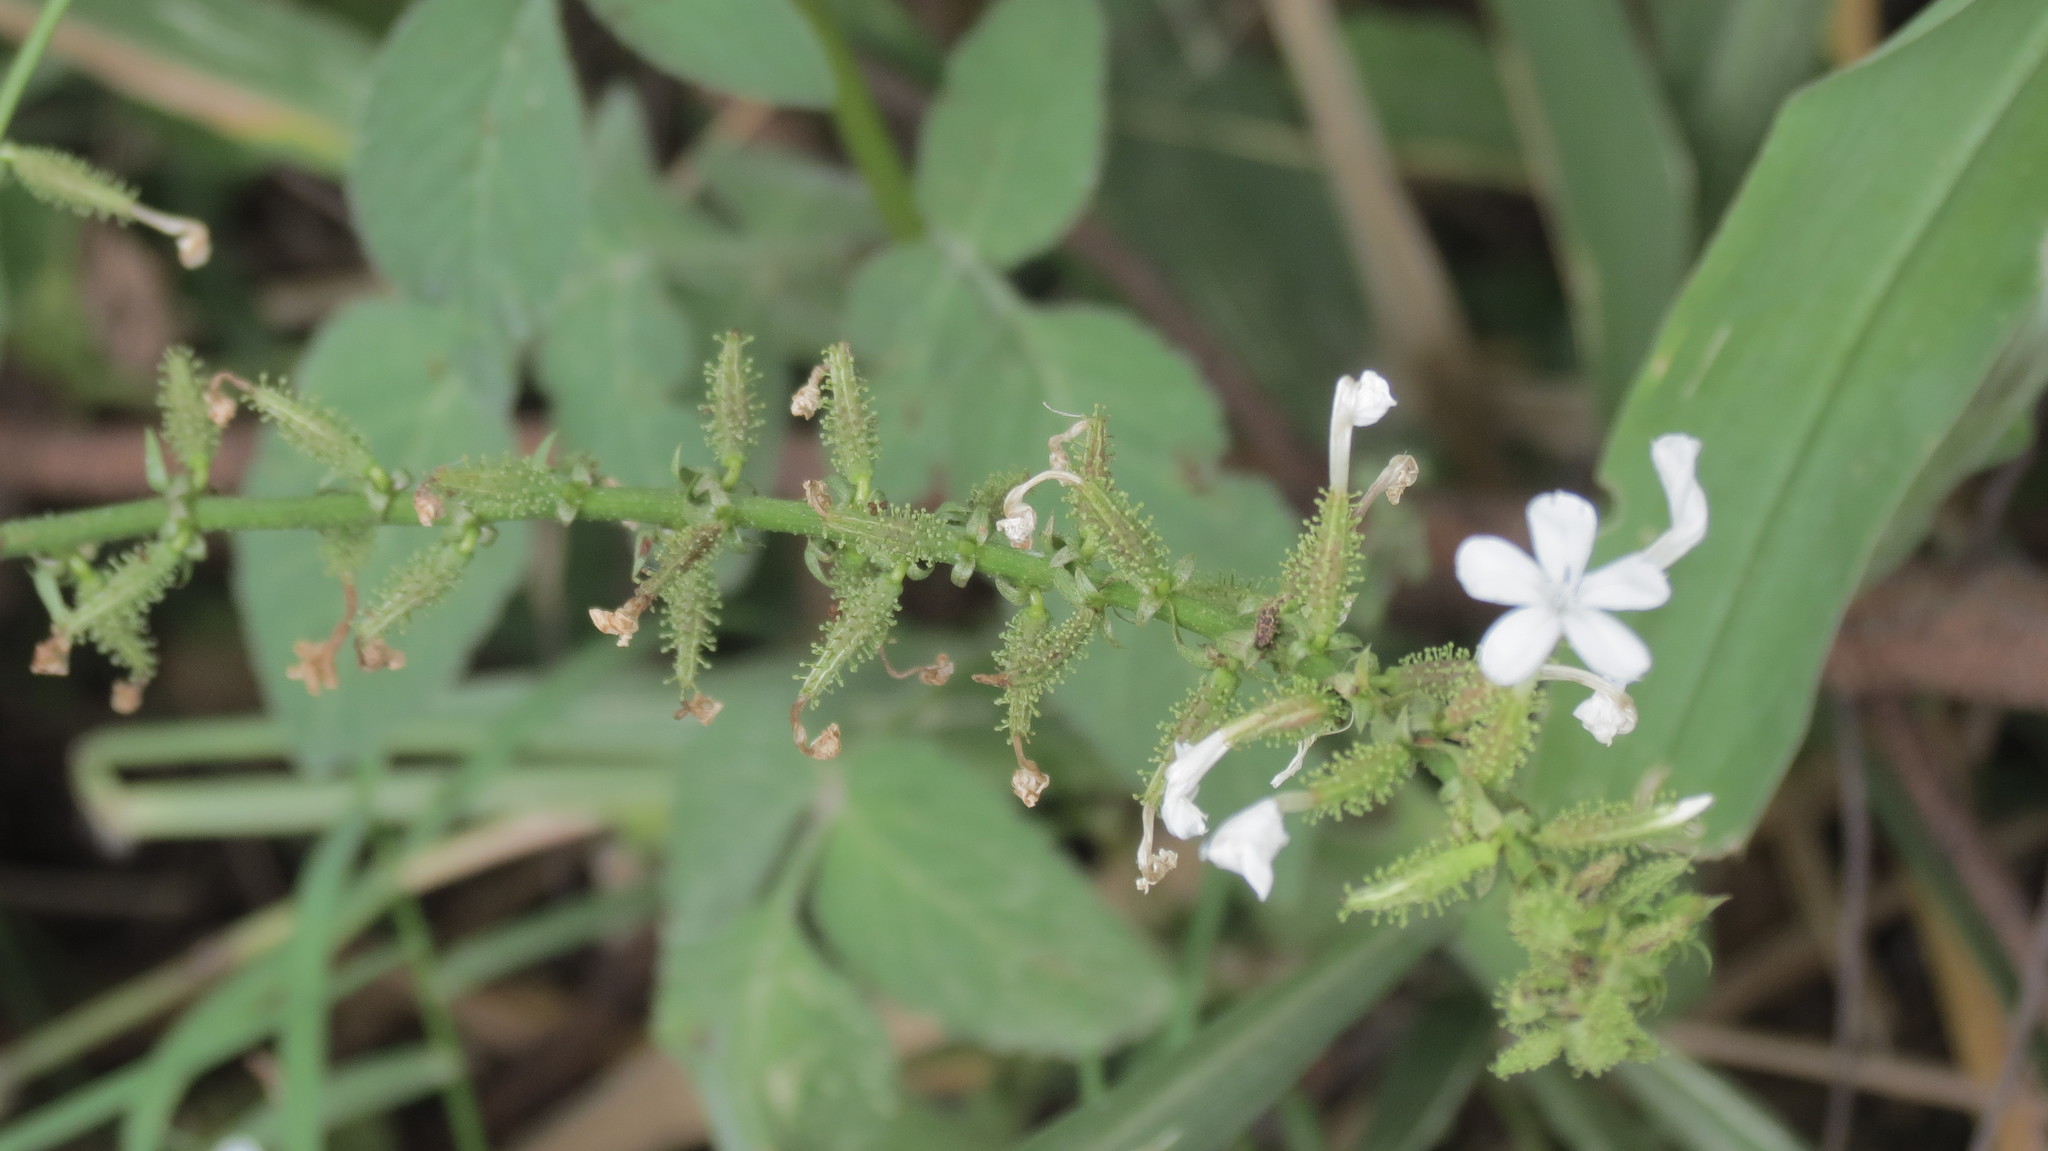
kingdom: Plantae
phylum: Tracheophyta
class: Magnoliopsida
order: Caryophyllales
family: Plumbaginaceae
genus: Plumbago
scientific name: Plumbago zeylanica
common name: Doctorbush
